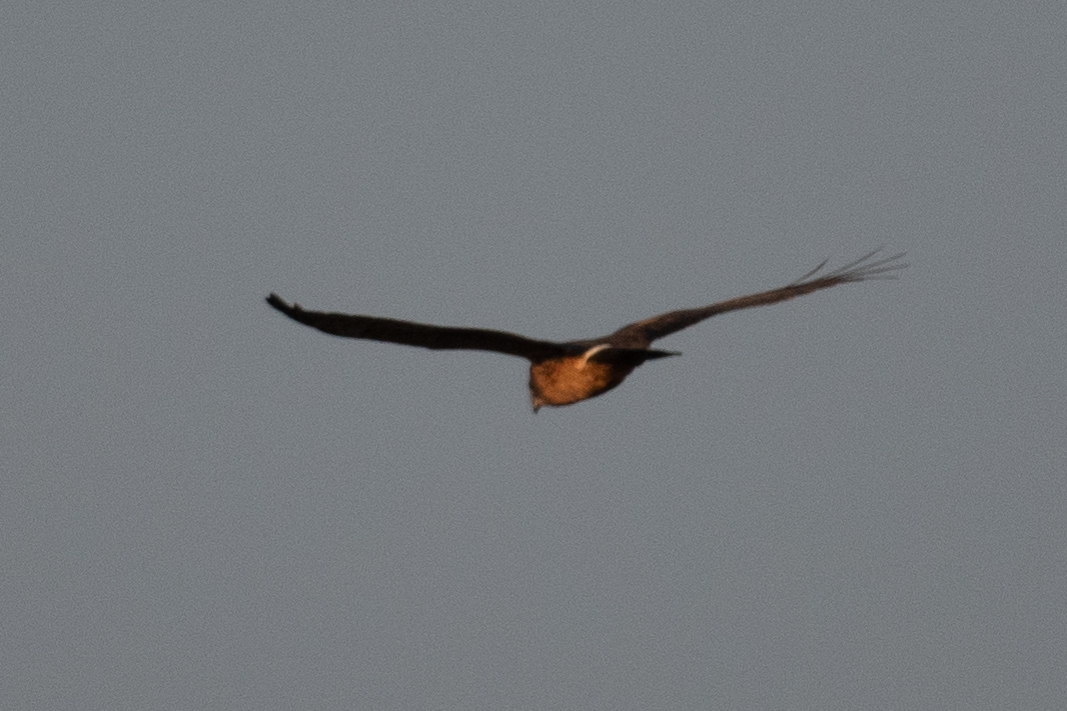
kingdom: Animalia
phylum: Chordata
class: Aves
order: Accipitriformes
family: Accipitridae
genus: Circus
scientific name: Circus cyaneus
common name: Hen harrier
